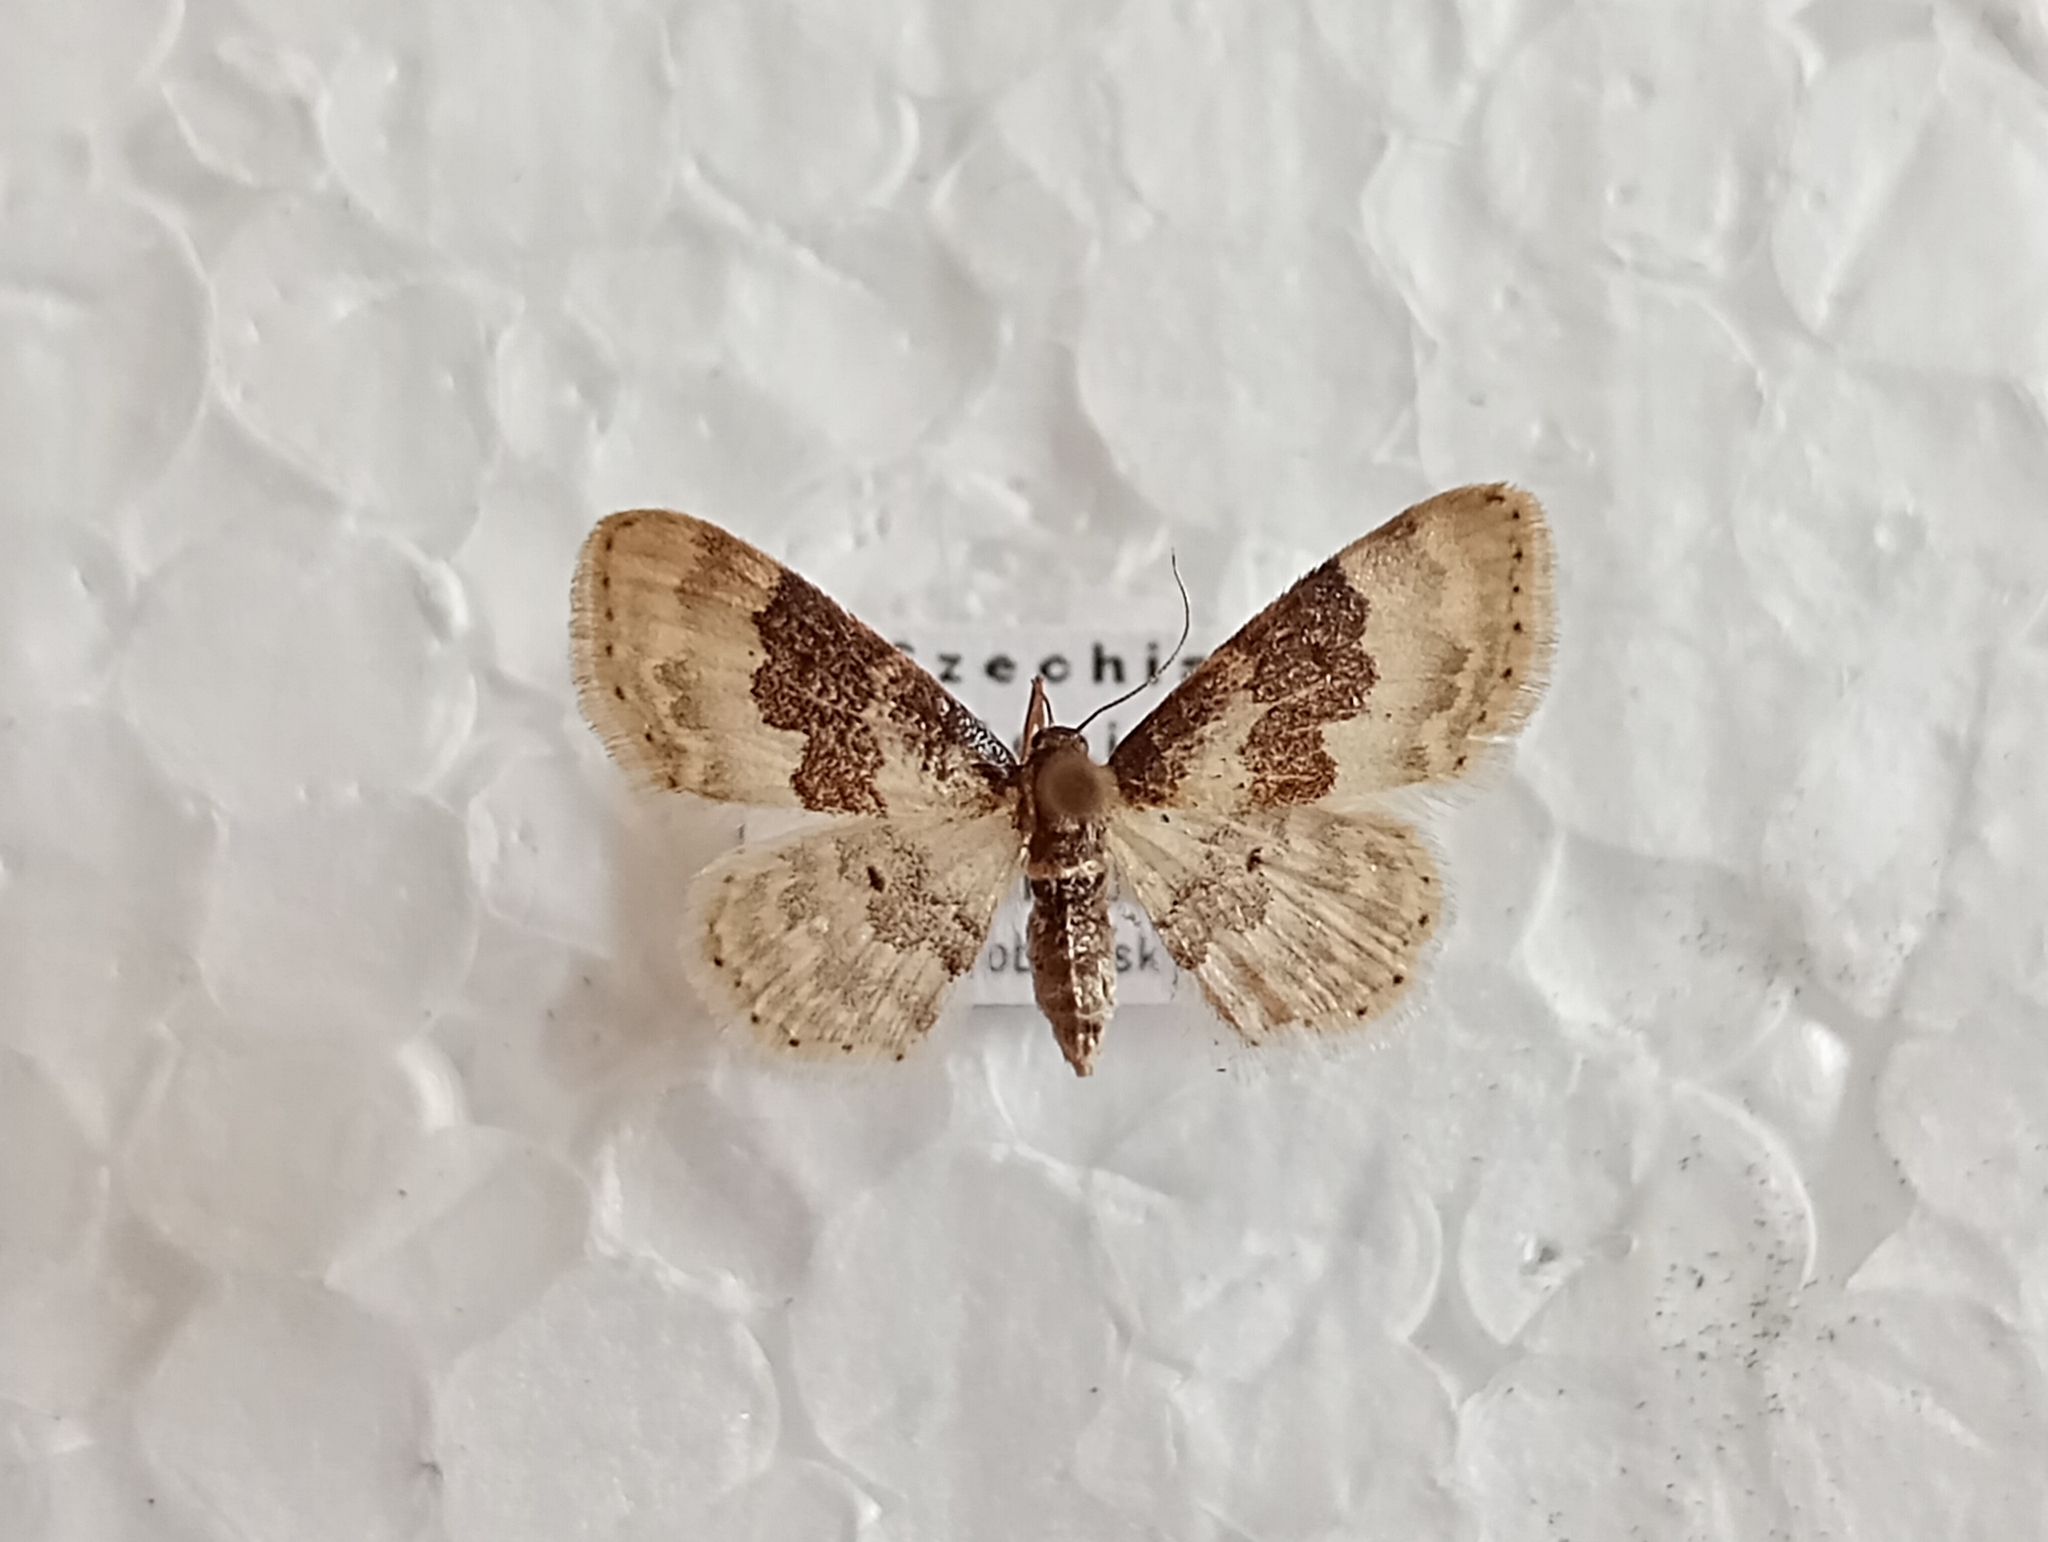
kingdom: Animalia
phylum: Arthropoda
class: Insecta
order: Lepidoptera
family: Geometridae
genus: Idaea
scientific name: Idaea rusticata
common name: Least carpet
